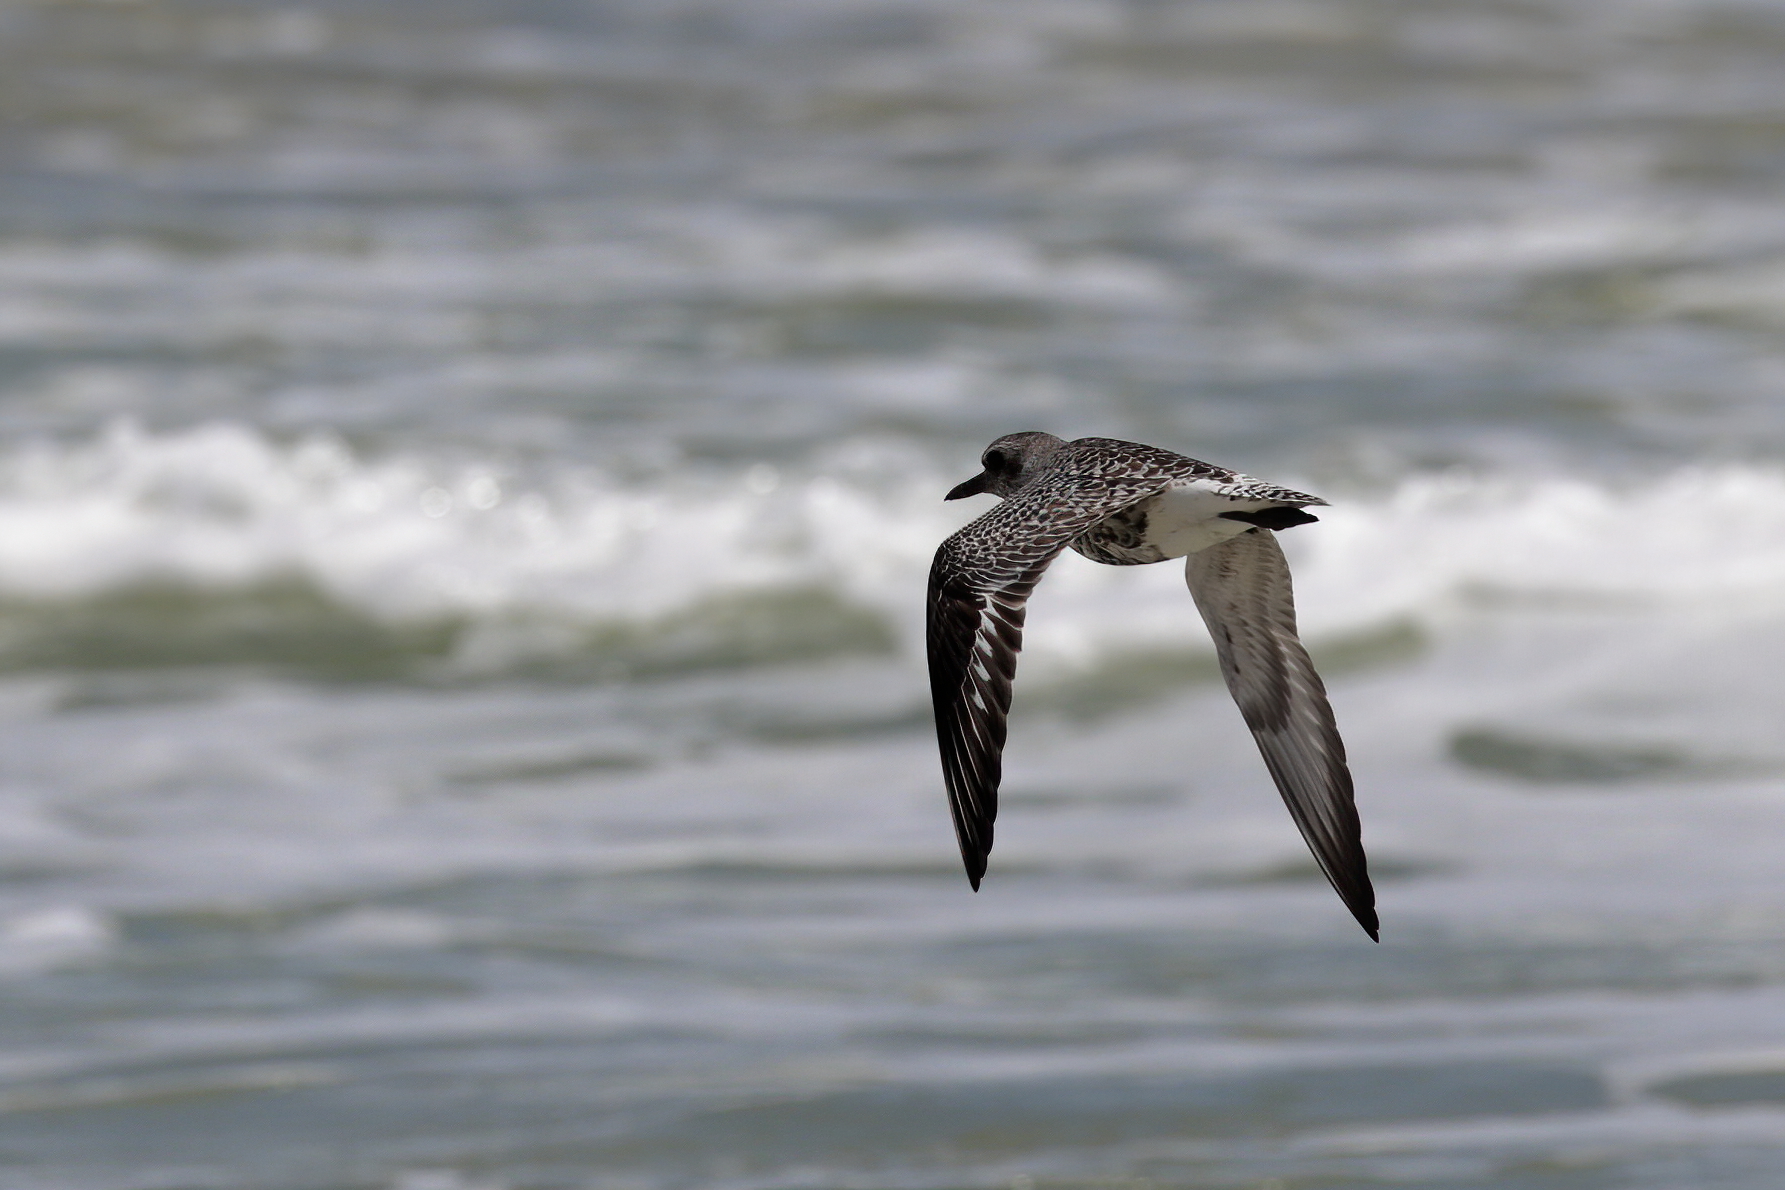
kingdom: Animalia
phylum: Chordata
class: Aves
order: Charadriiformes
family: Charadriidae
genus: Pluvialis
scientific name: Pluvialis squatarola
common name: Grey plover
